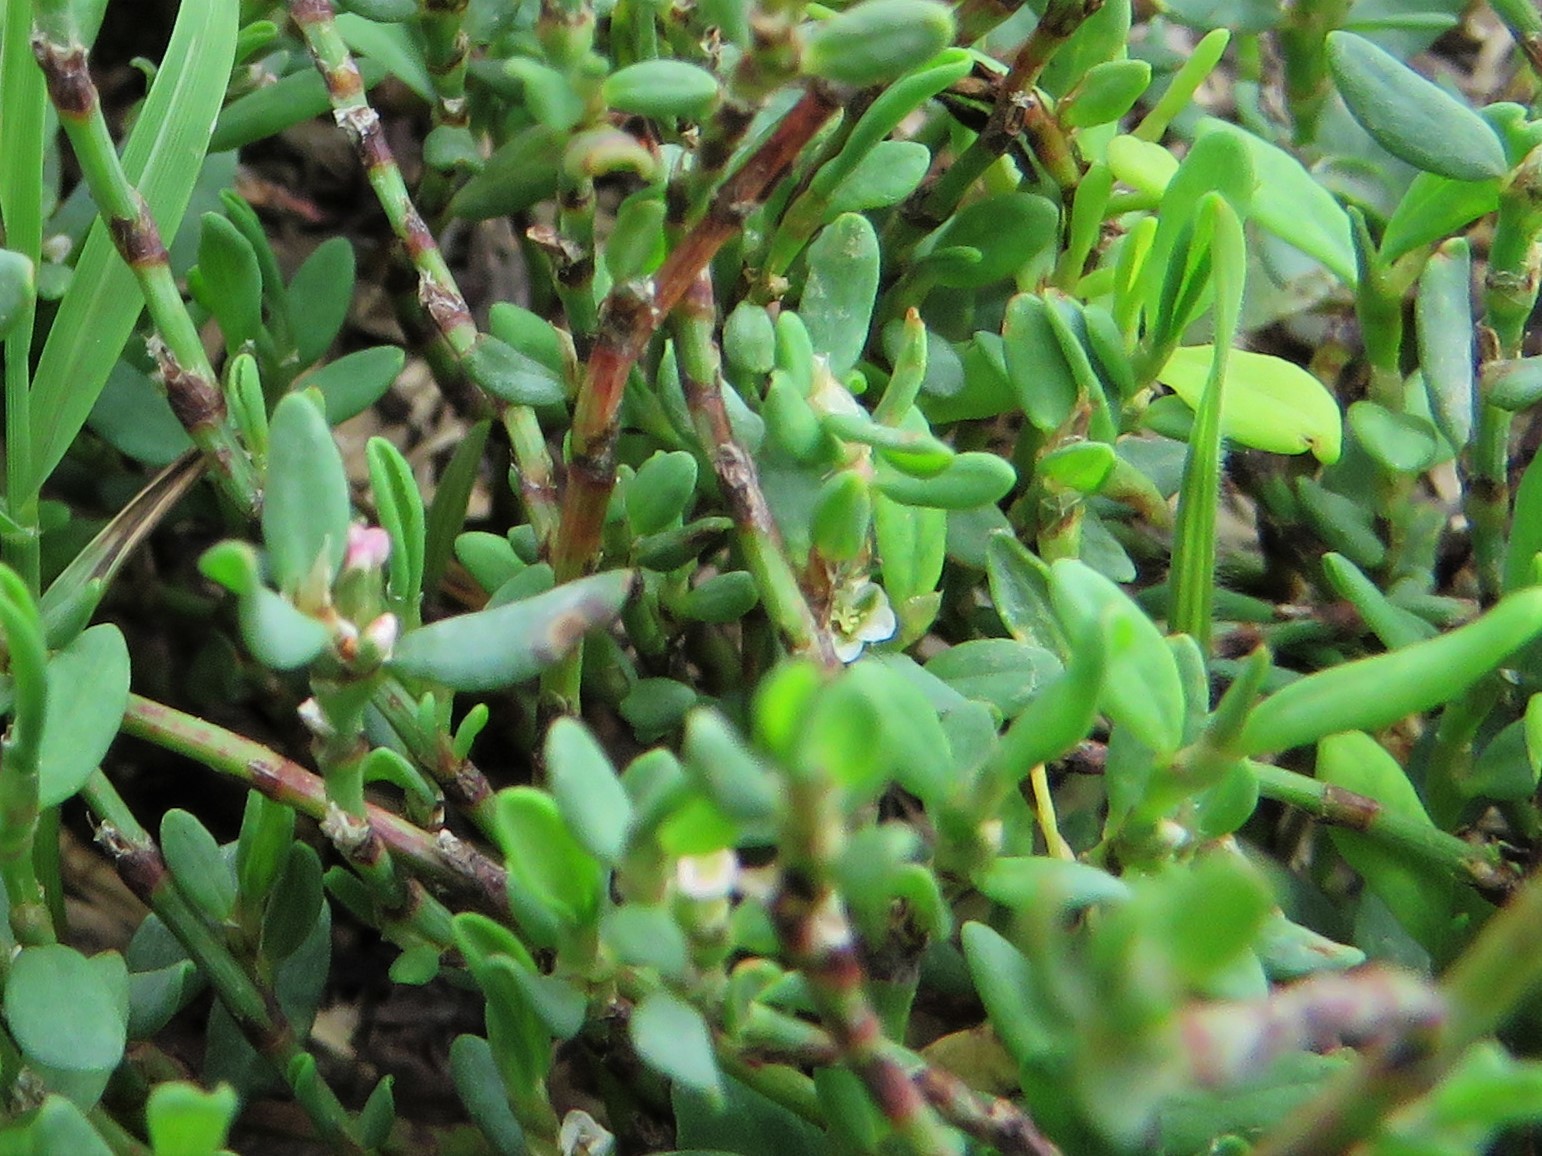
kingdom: Plantae
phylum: Tracheophyta
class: Magnoliopsida
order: Caryophyllales
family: Polygonaceae
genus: Polygonum
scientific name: Polygonum aviculare
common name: Prostrate knotweed
